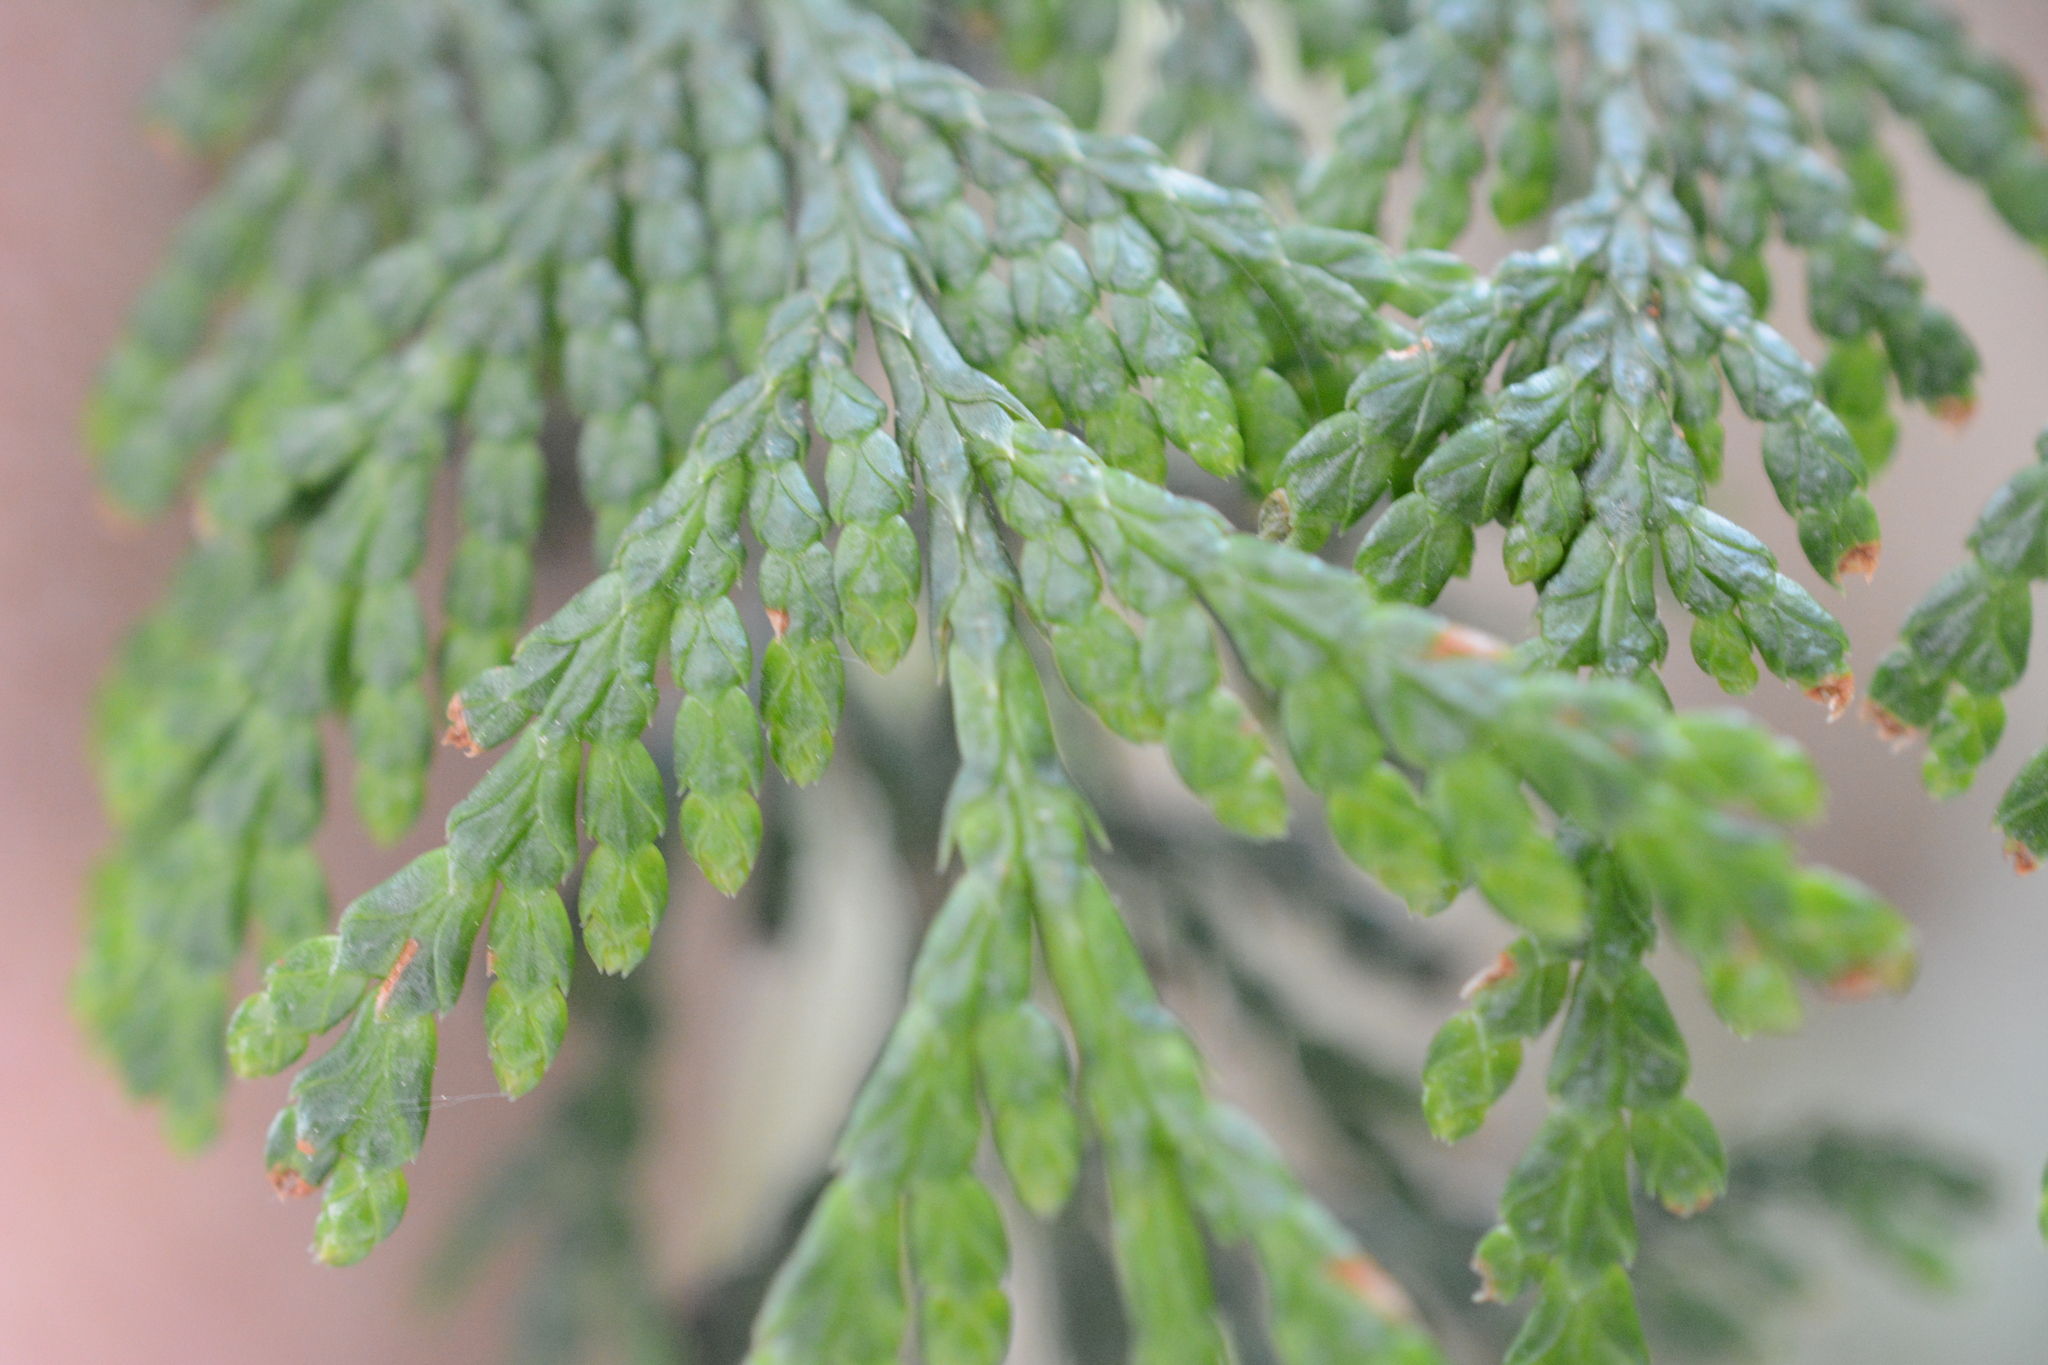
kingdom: Plantae
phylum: Tracheophyta
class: Pinopsida
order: Pinales
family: Cupressaceae
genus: Thuja
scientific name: Thuja plicata
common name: Western red-cedar
